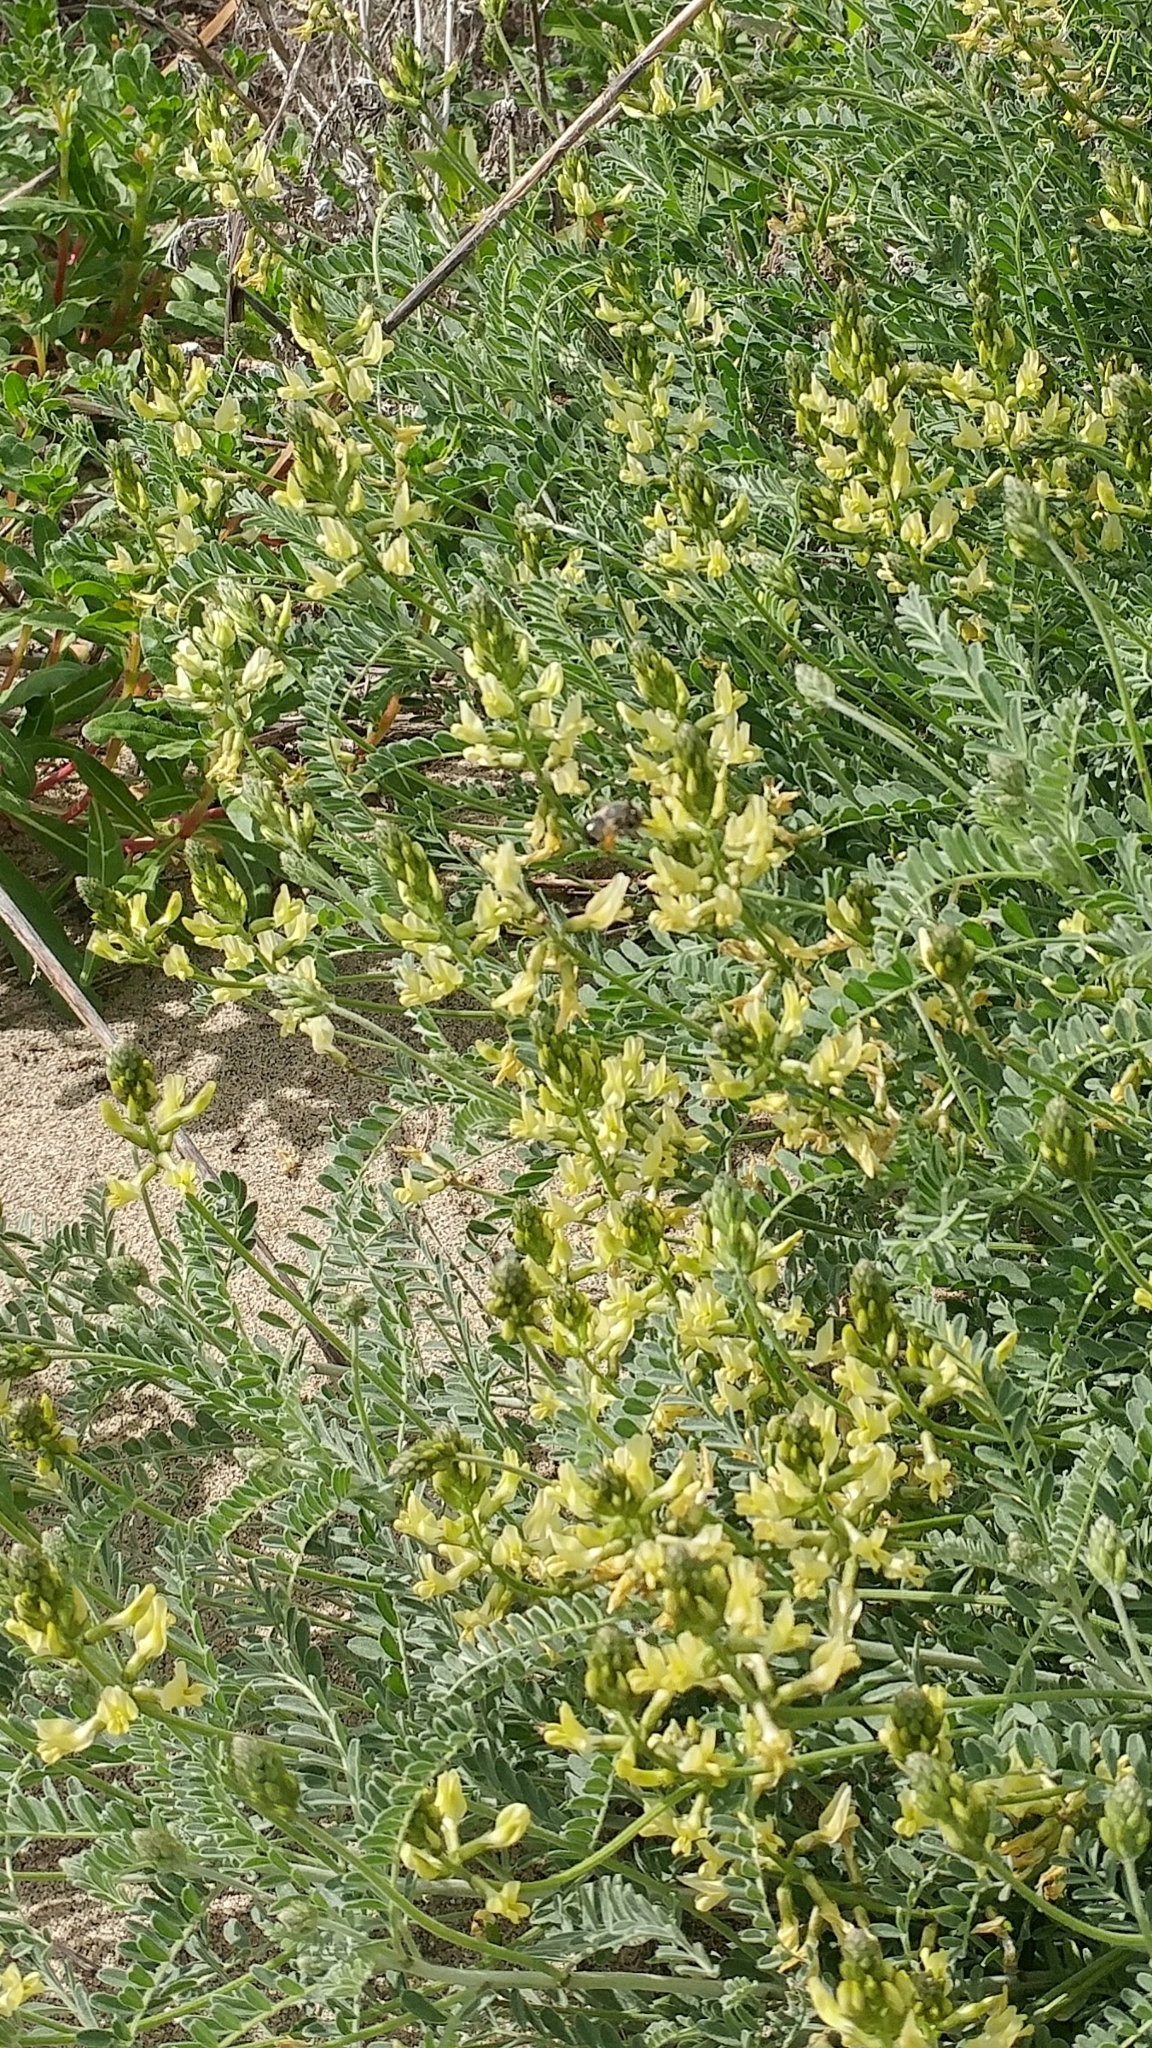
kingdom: Plantae
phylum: Tracheophyta
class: Magnoliopsida
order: Fabales
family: Fabaceae
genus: Astragalus
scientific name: Astragalus nevinii
